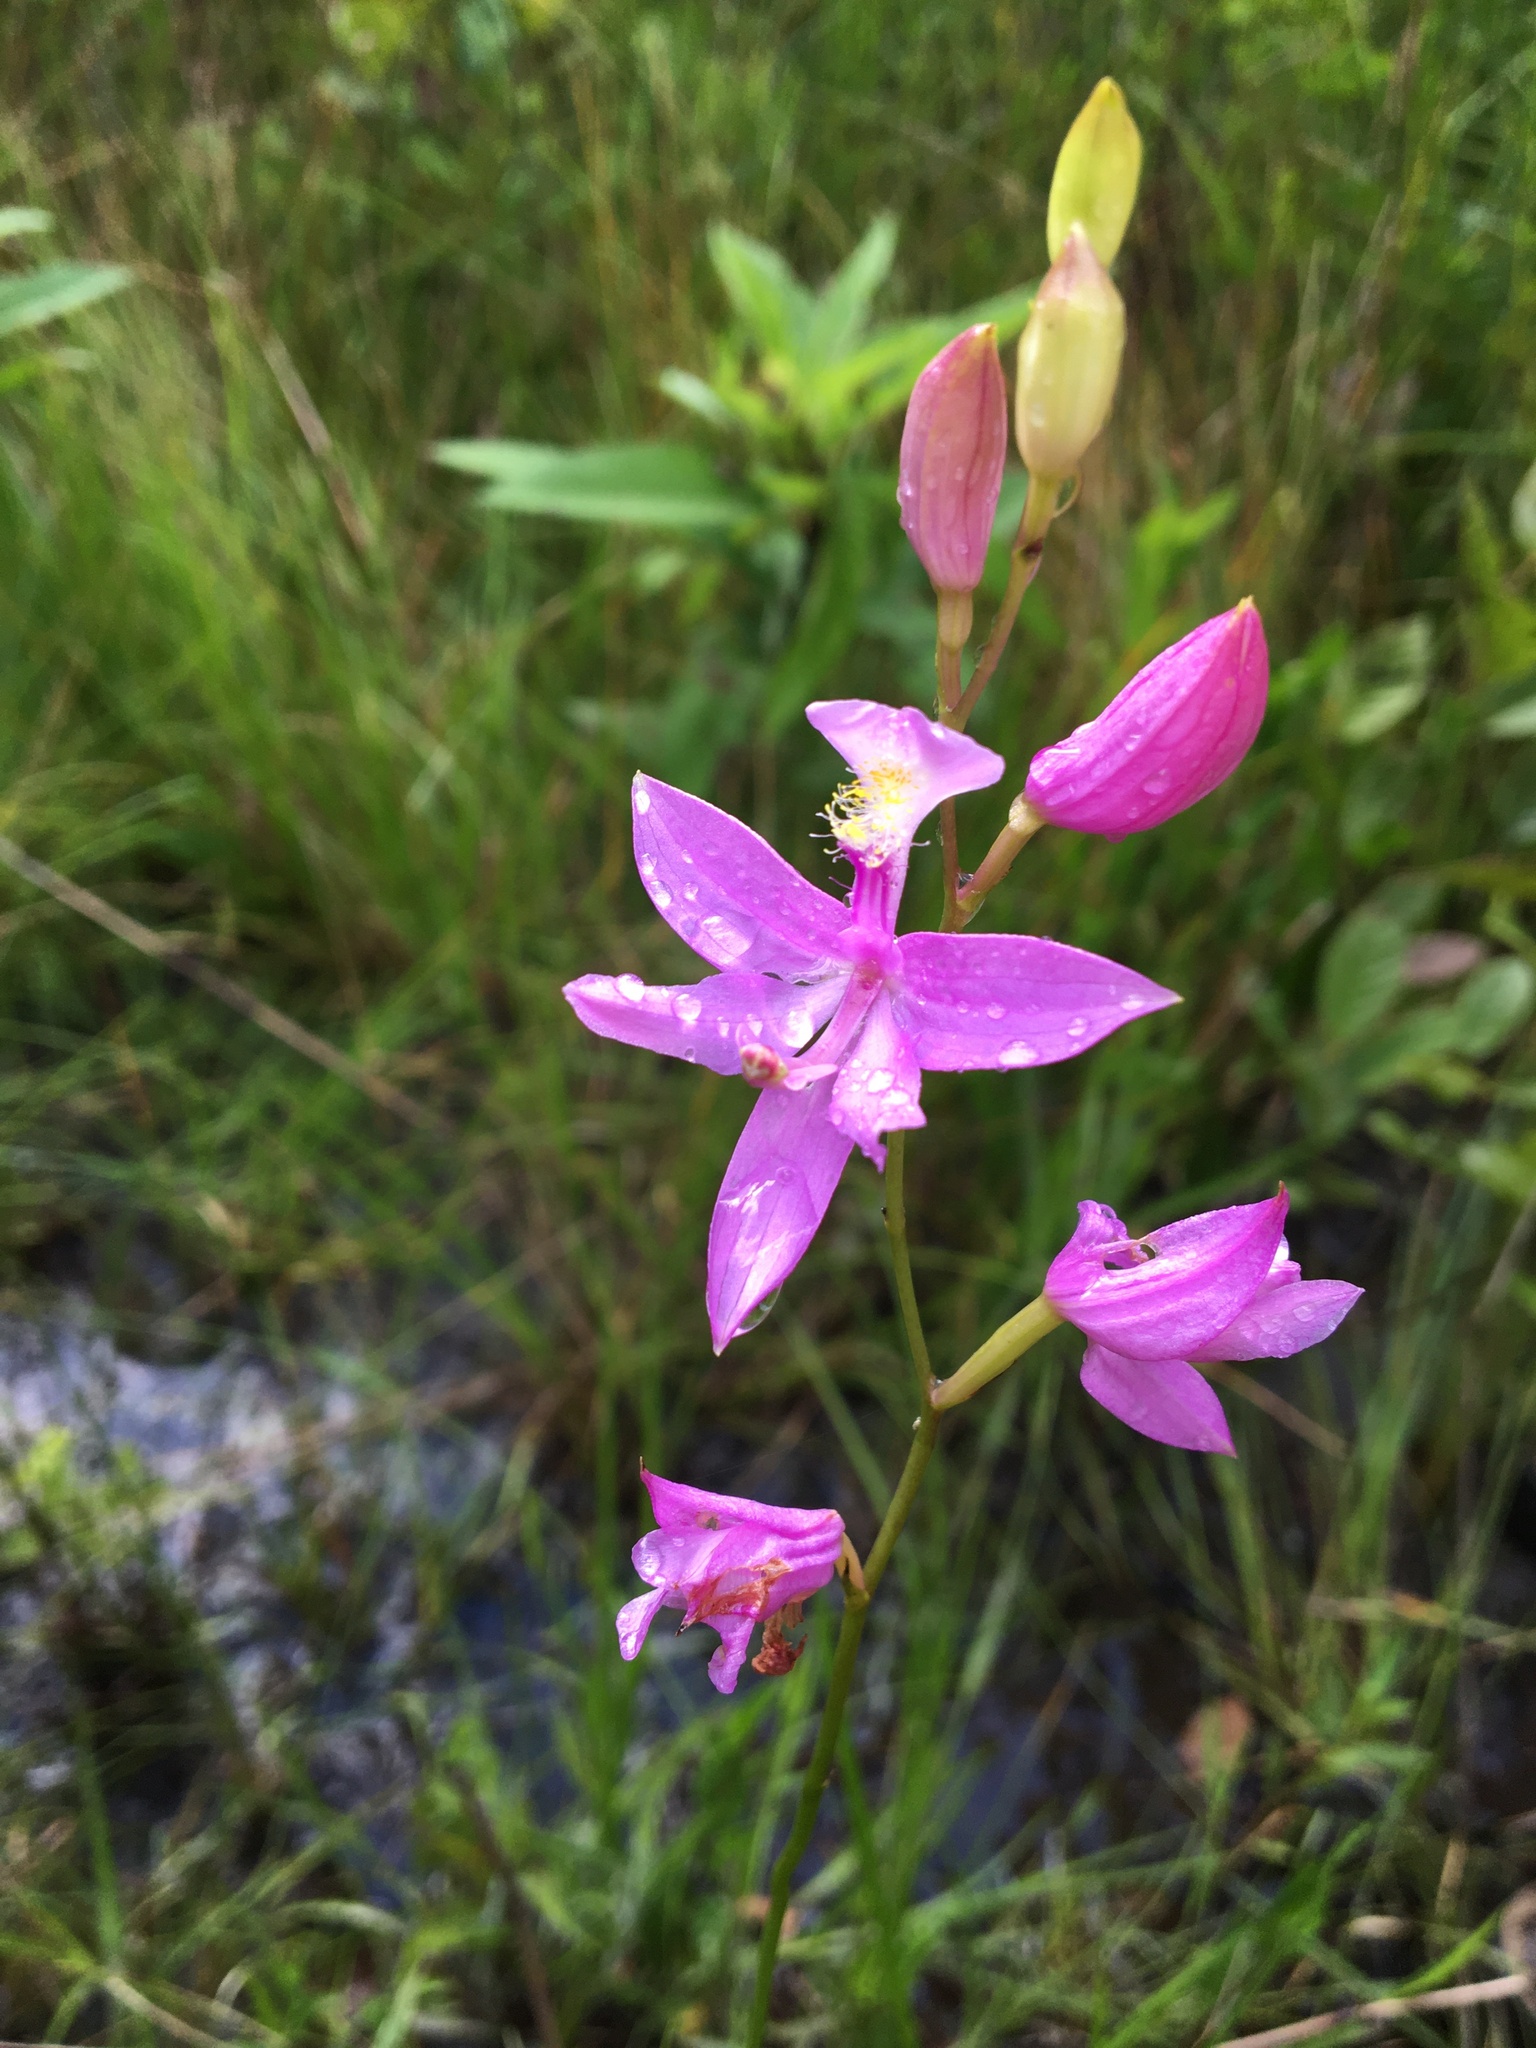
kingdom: Plantae
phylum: Tracheophyta
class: Liliopsida
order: Asparagales
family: Orchidaceae
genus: Calopogon
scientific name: Calopogon tuberosus
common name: Grass-pink
